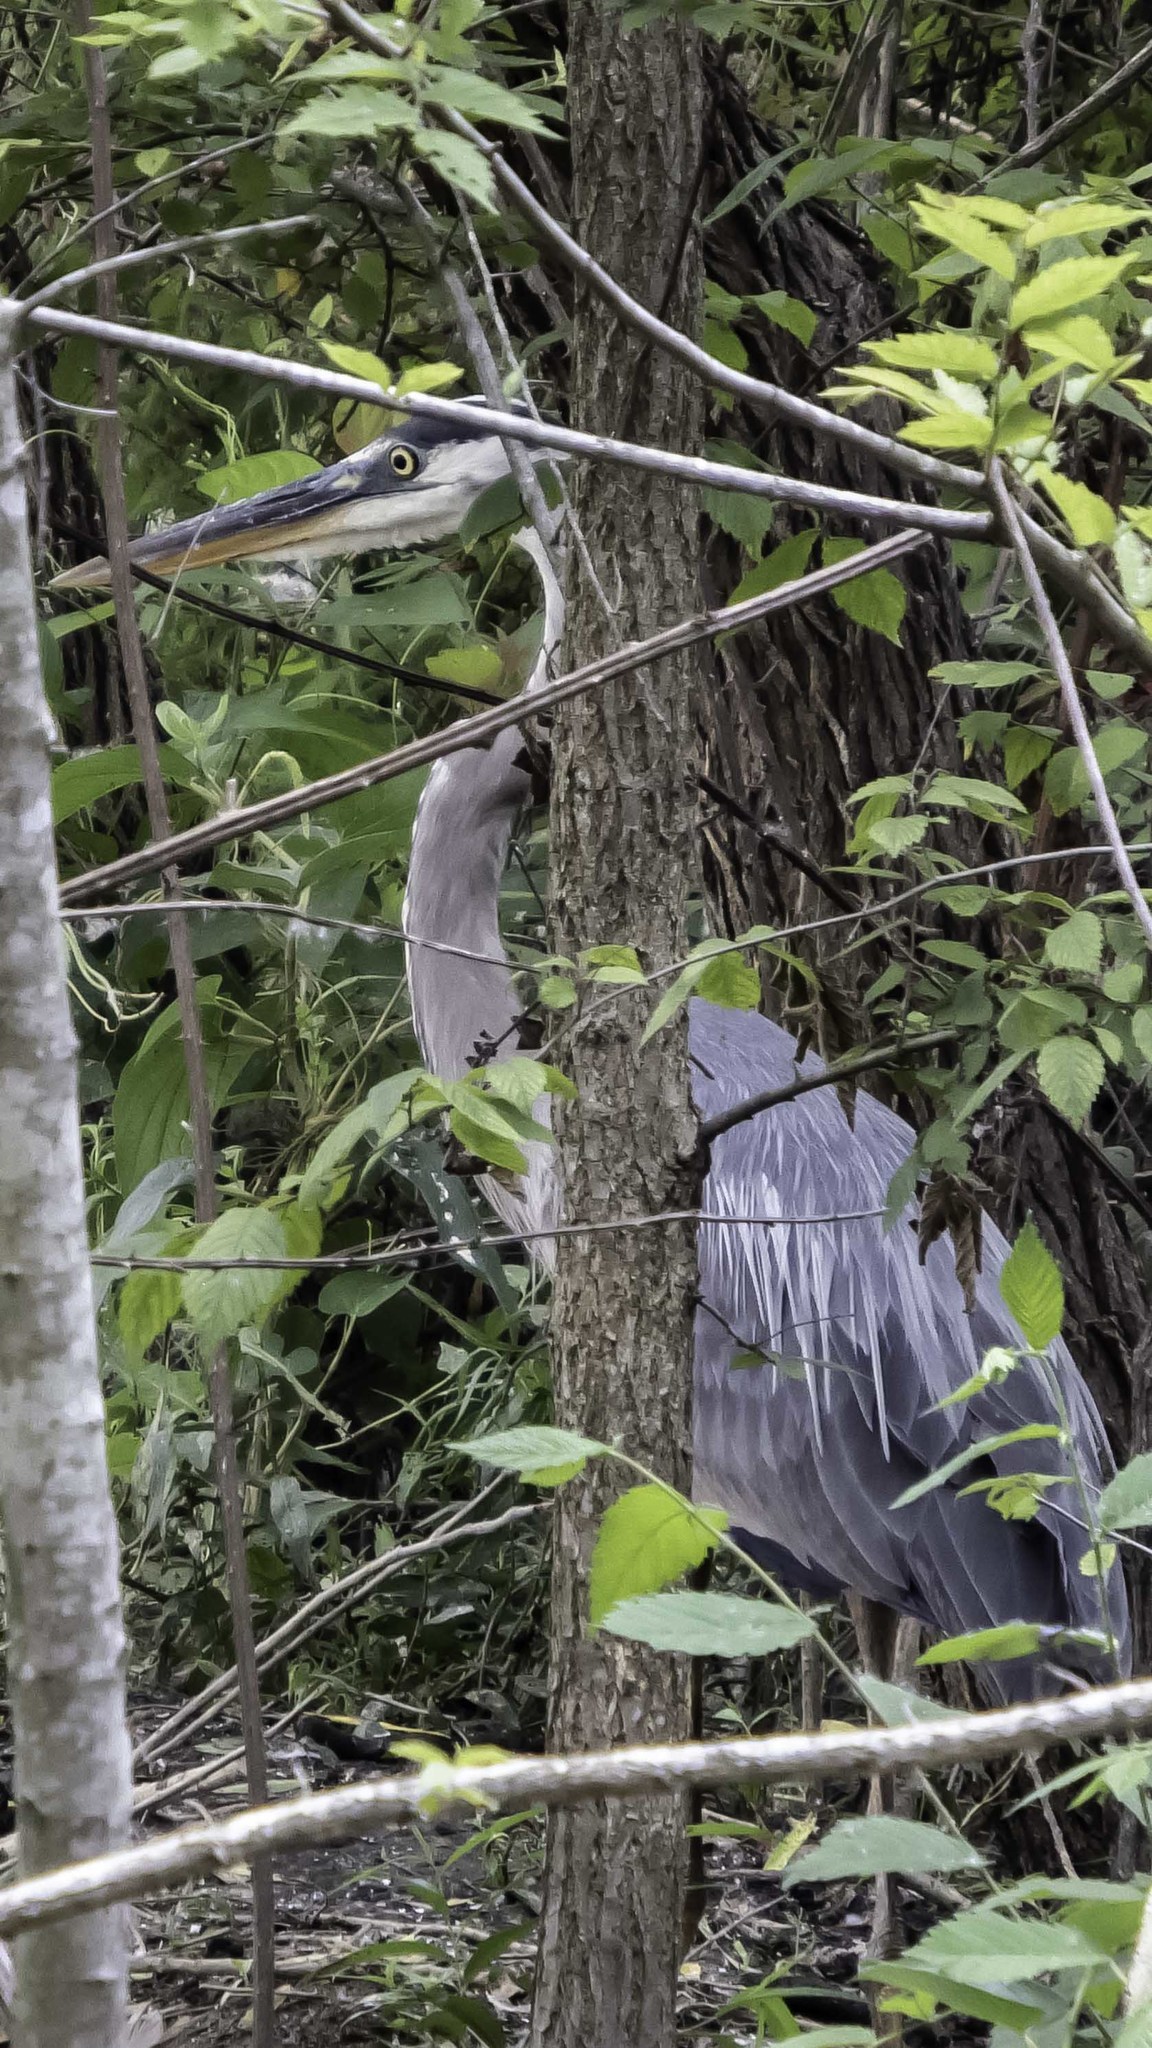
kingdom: Animalia
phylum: Chordata
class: Aves
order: Pelecaniformes
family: Ardeidae
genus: Ardea
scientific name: Ardea herodias
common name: Great blue heron
